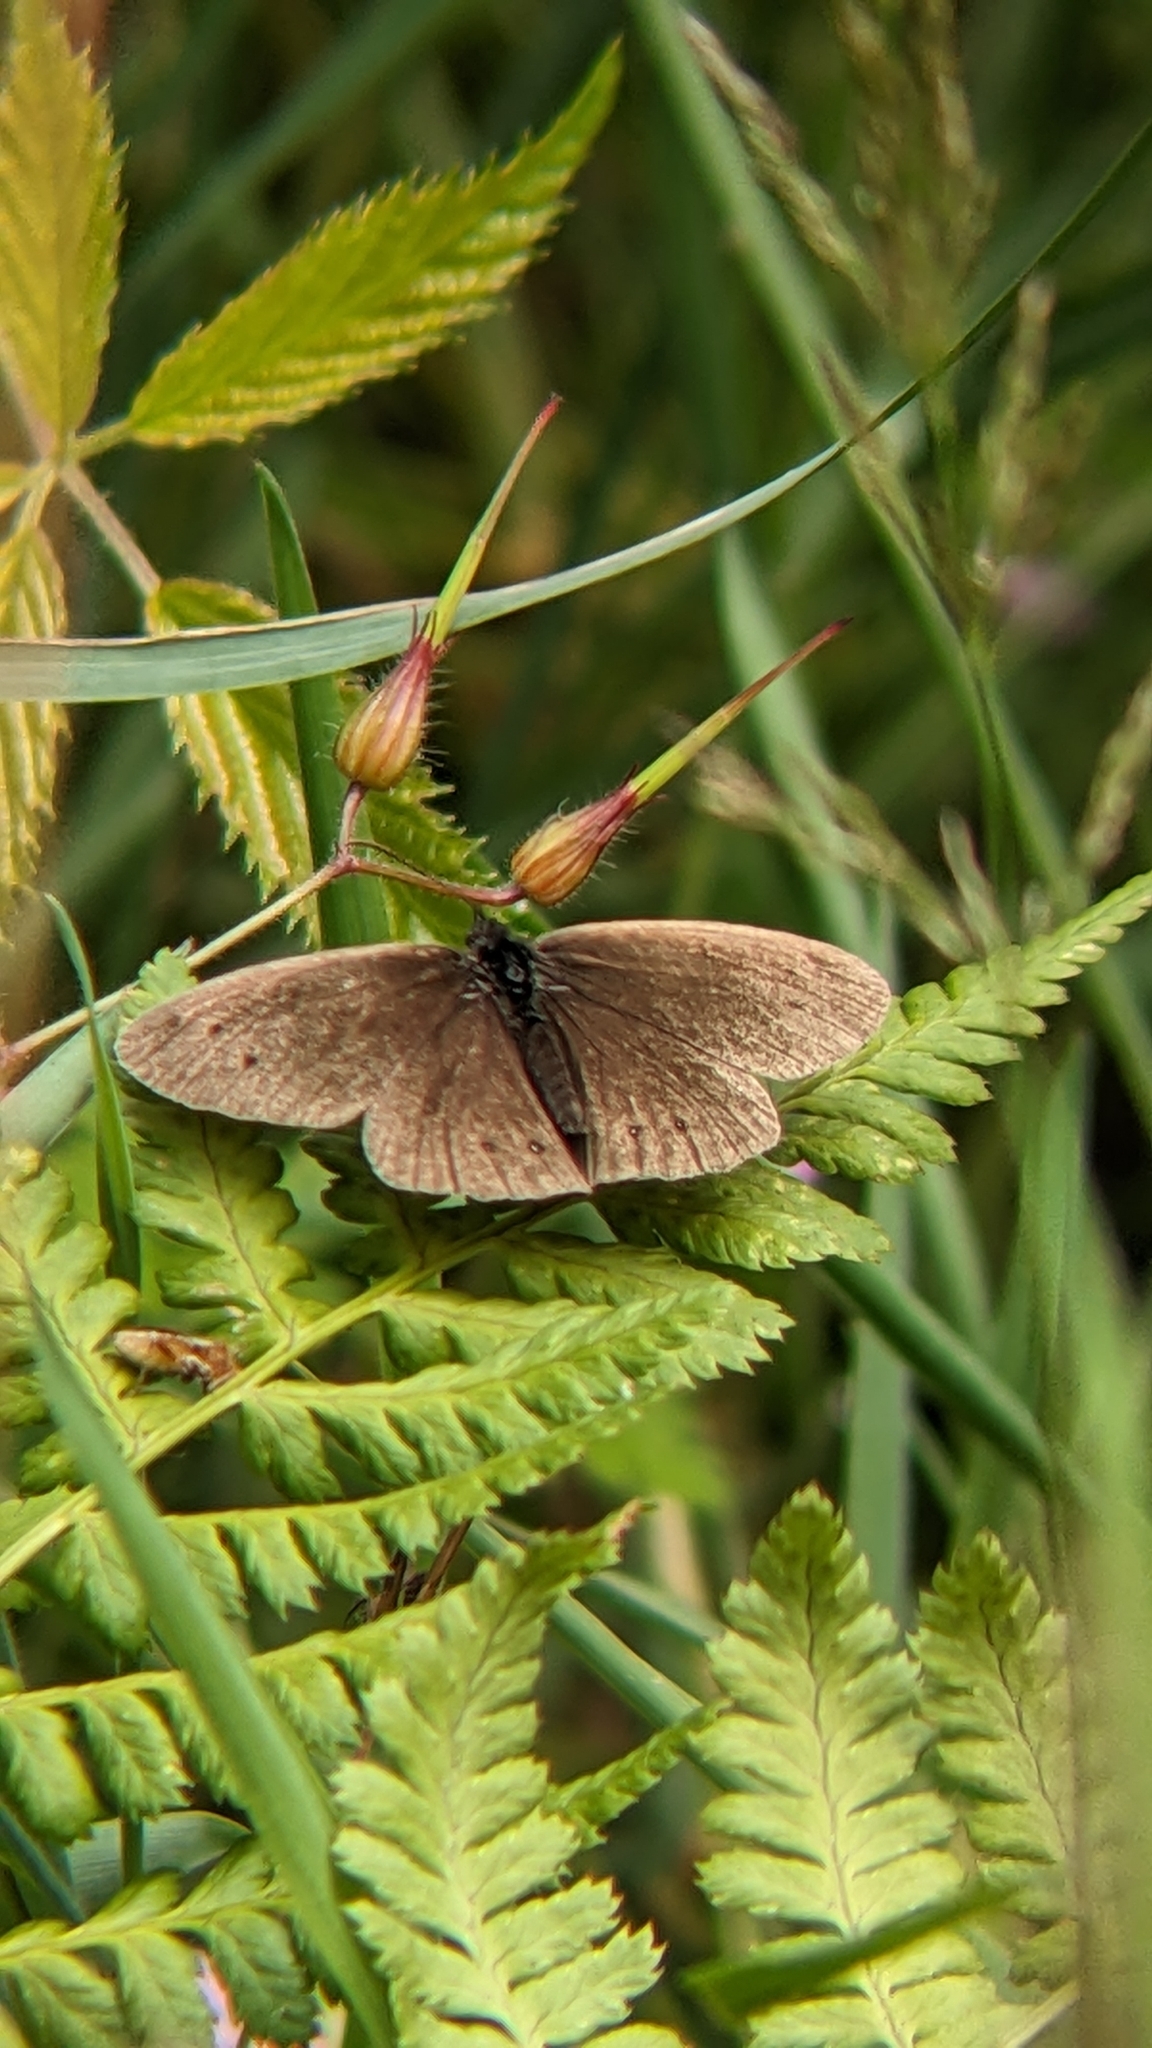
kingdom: Animalia
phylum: Arthropoda
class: Insecta
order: Lepidoptera
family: Nymphalidae
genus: Aphantopus
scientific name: Aphantopus hyperantus
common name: Ringlet
